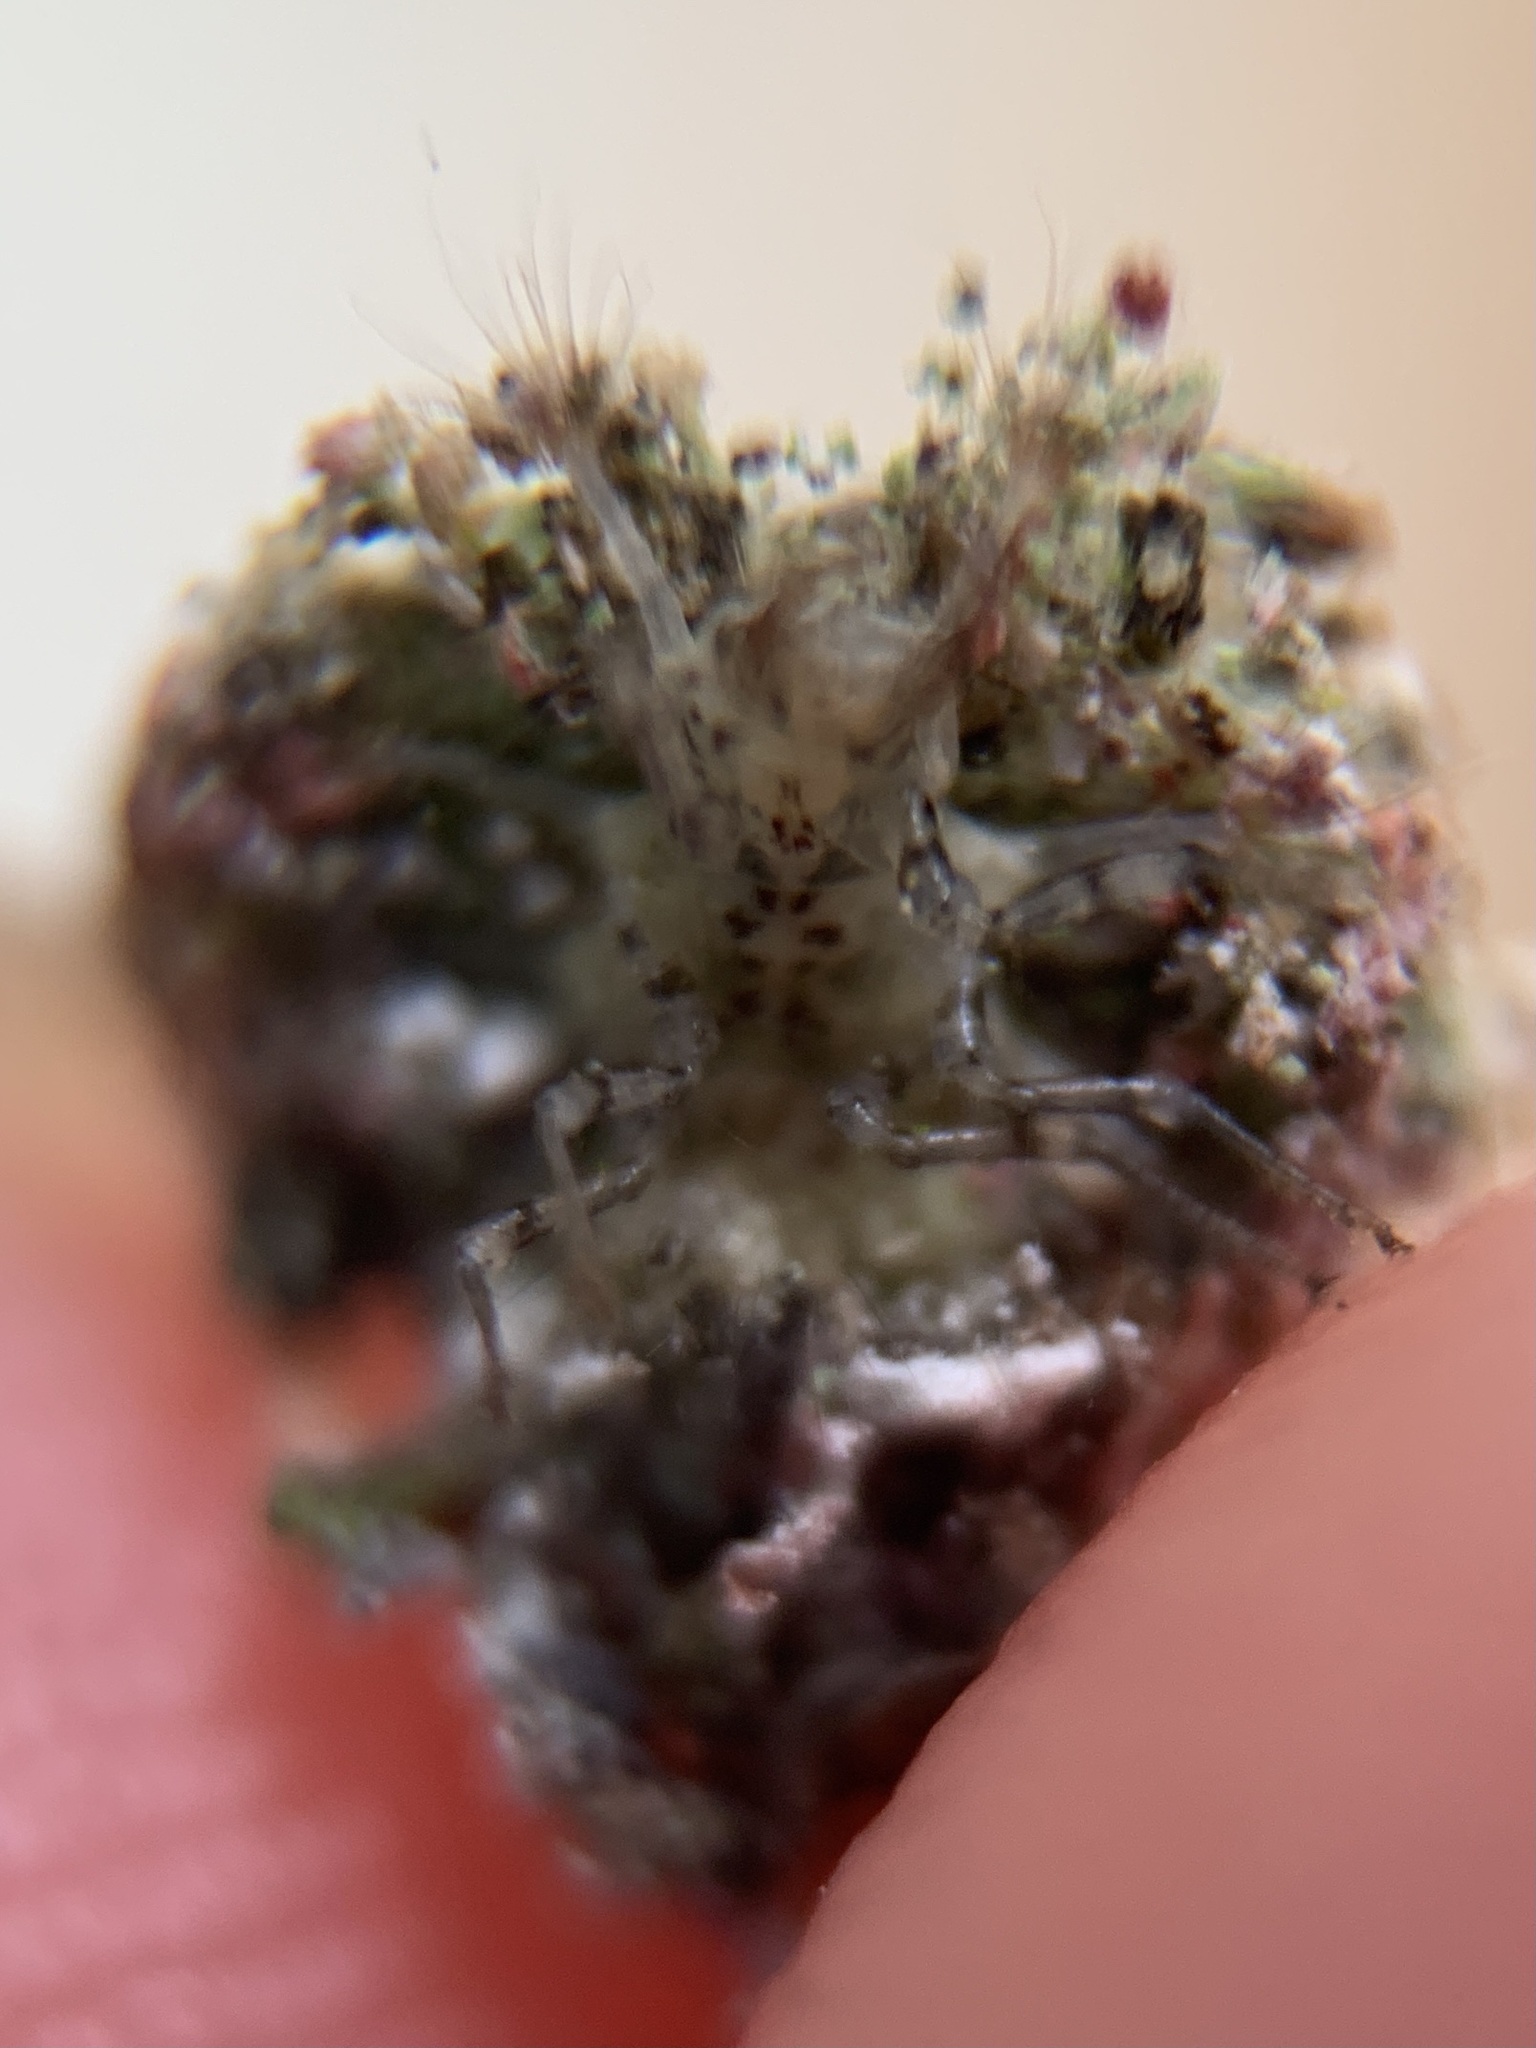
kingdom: Animalia
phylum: Arthropoda
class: Insecta
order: Neuroptera
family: Chrysopidae
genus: Leucochrysa
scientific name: Leucochrysa pavida
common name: Lichen-carrying green lacewing
